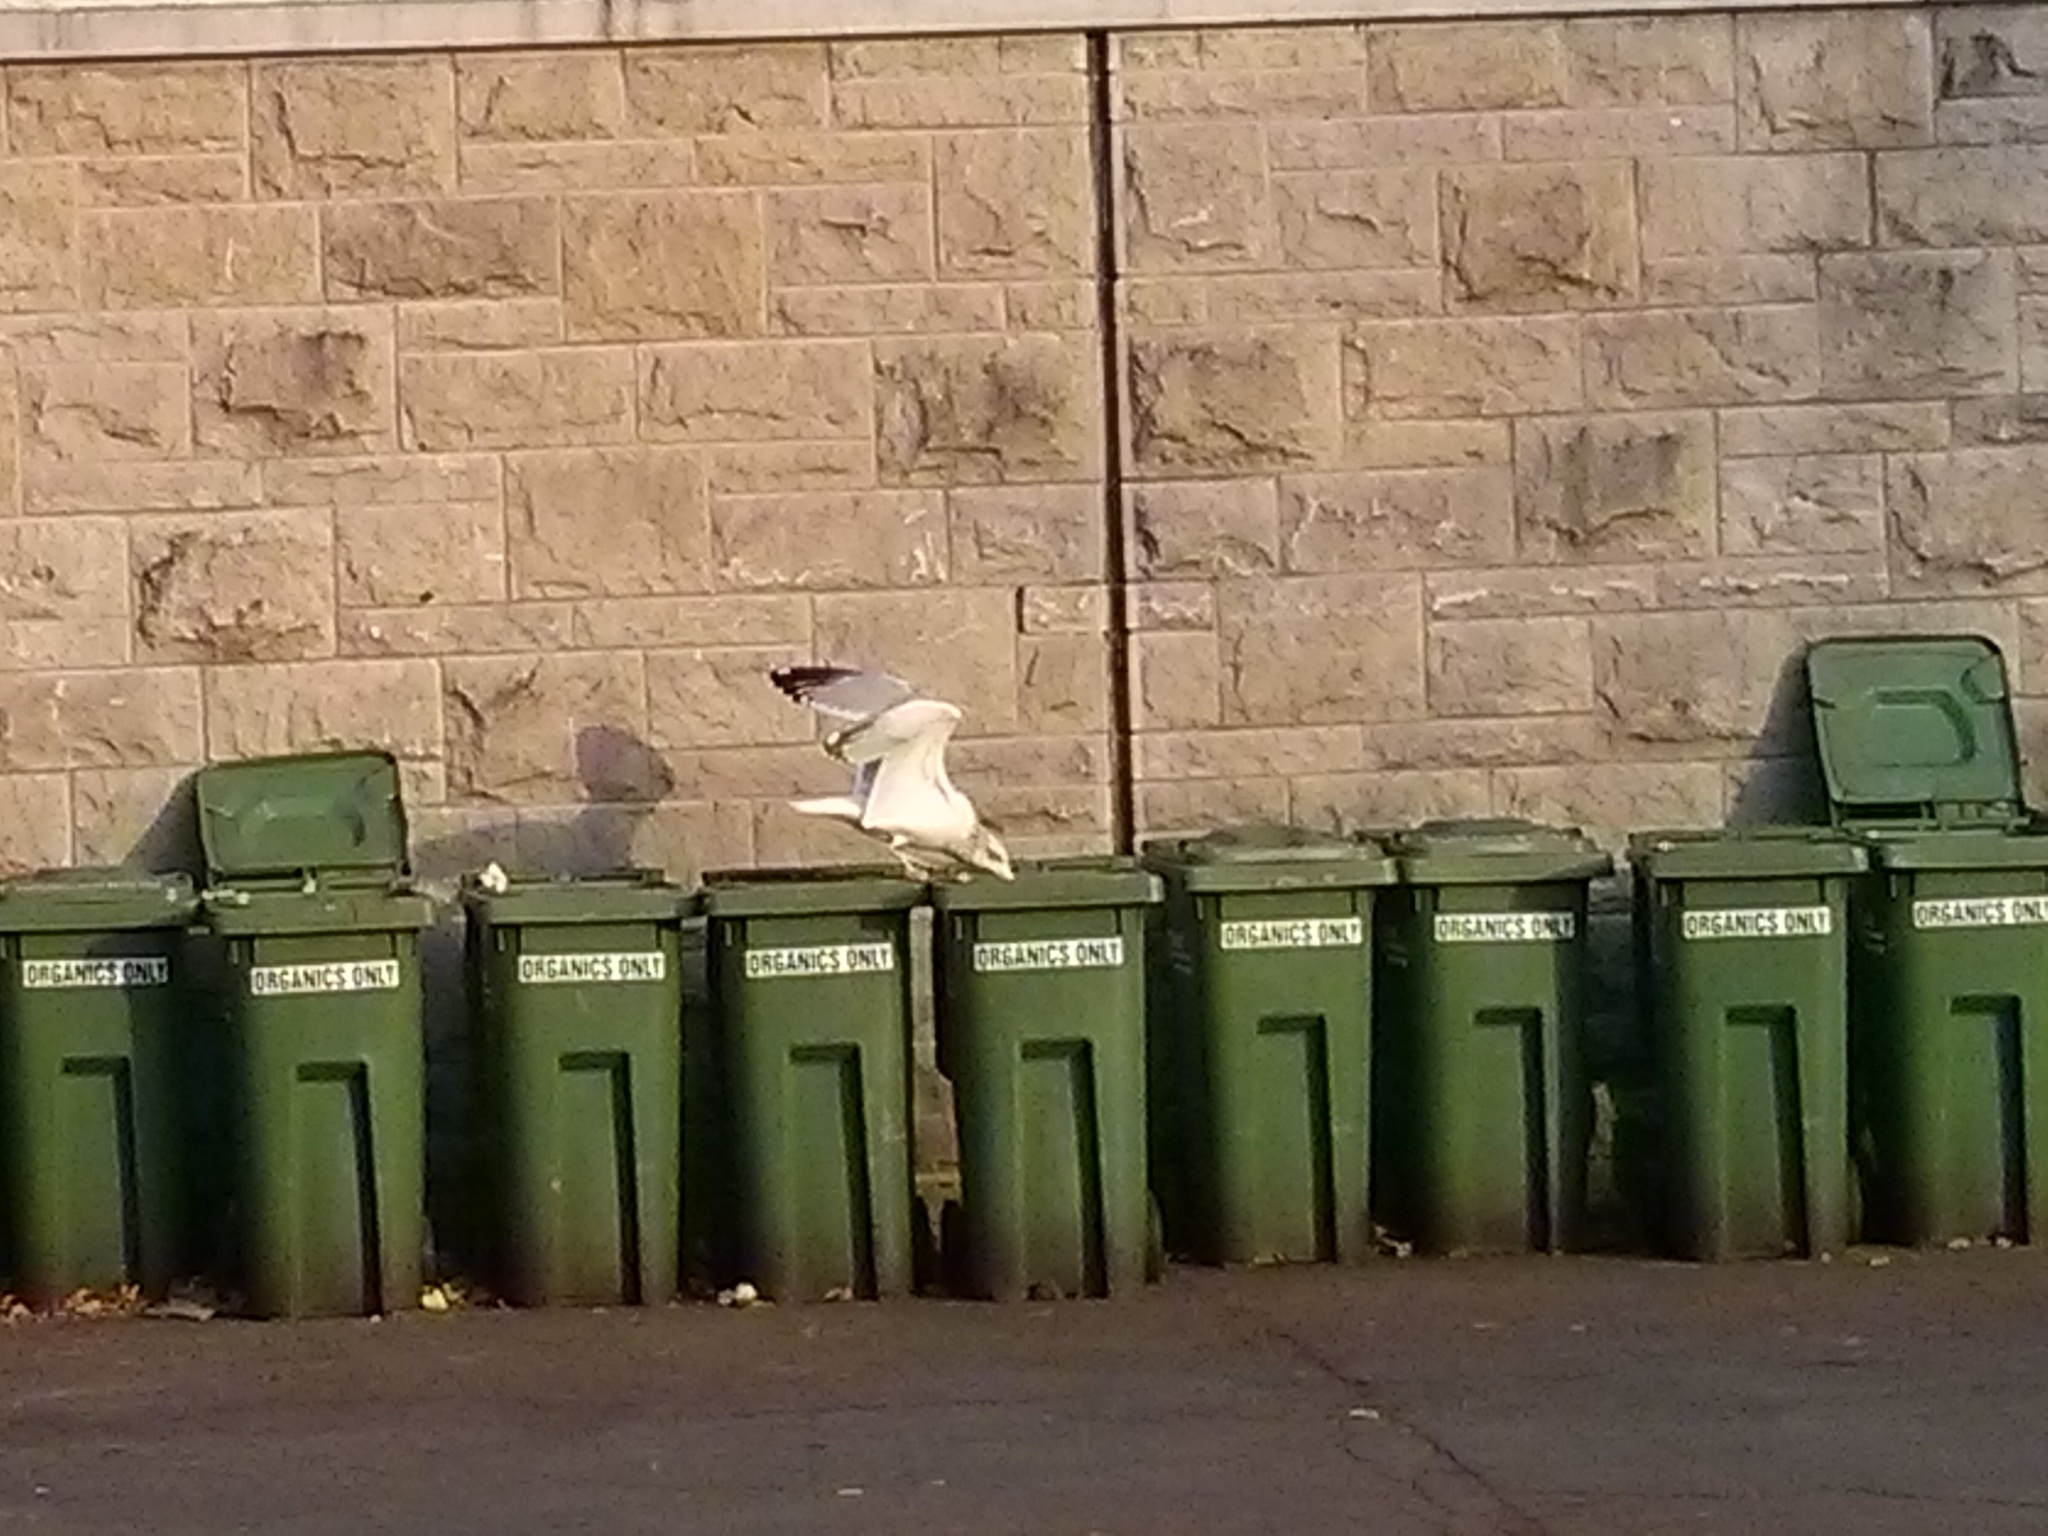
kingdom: Animalia
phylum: Chordata
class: Aves
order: Charadriiformes
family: Laridae
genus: Larus
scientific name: Larus argentatus
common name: Herring gull
